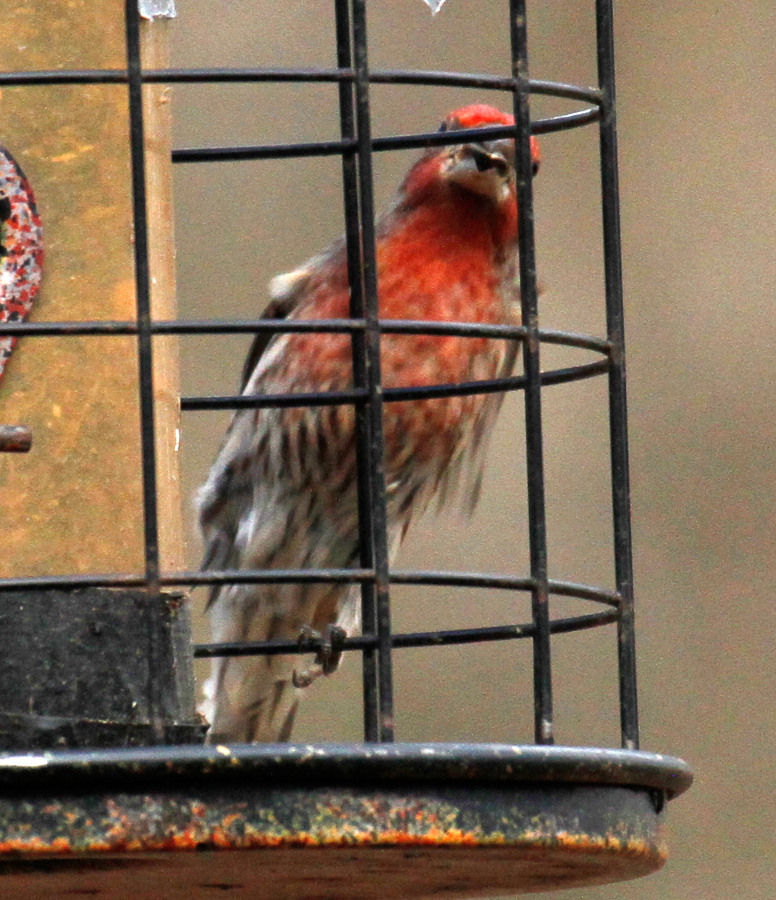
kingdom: Animalia
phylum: Chordata
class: Aves
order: Passeriformes
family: Fringillidae
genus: Haemorhous
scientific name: Haemorhous mexicanus
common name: House finch
